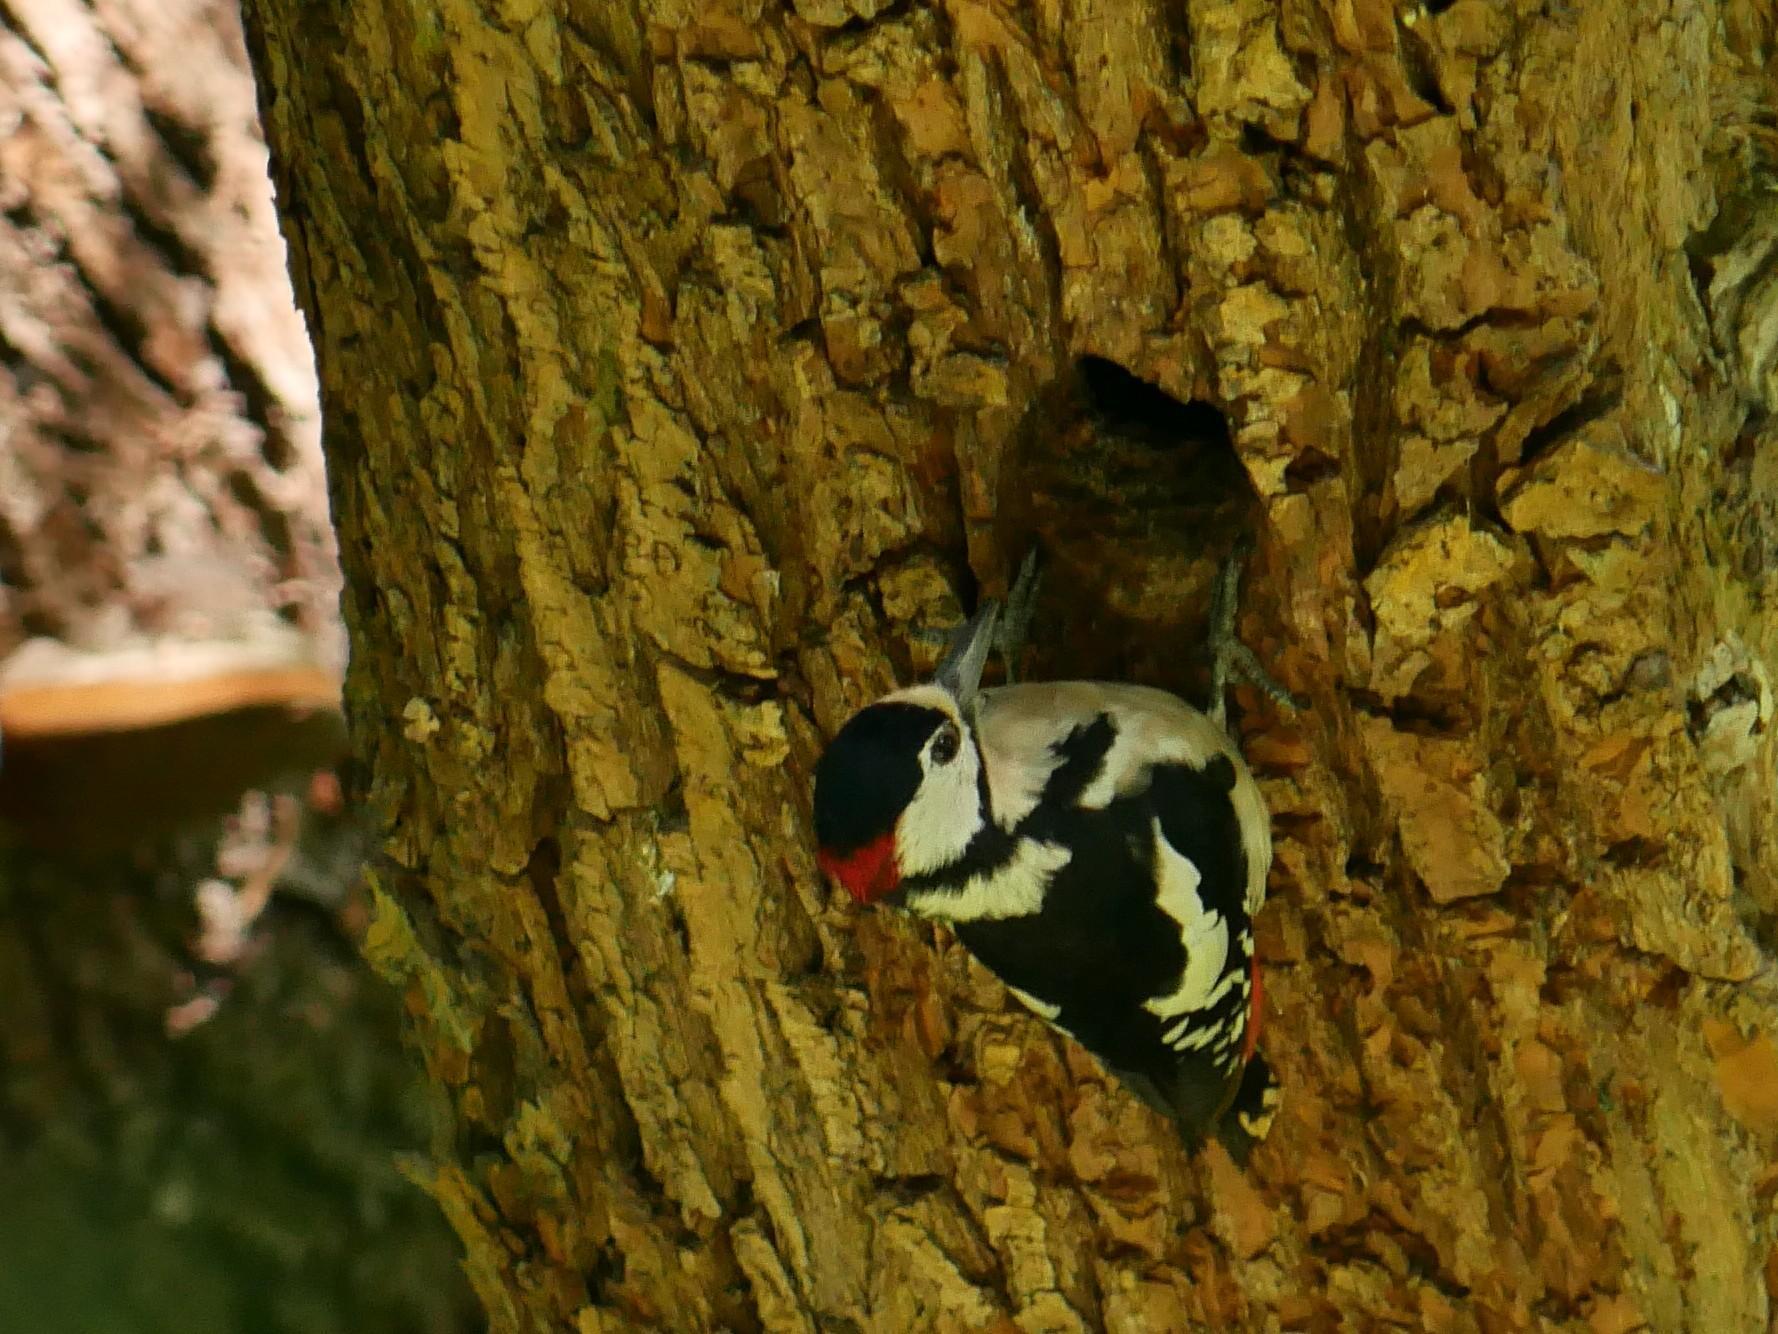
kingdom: Animalia
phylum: Chordata
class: Aves
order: Piciformes
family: Picidae
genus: Dendrocopos
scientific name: Dendrocopos major
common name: Great spotted woodpecker
